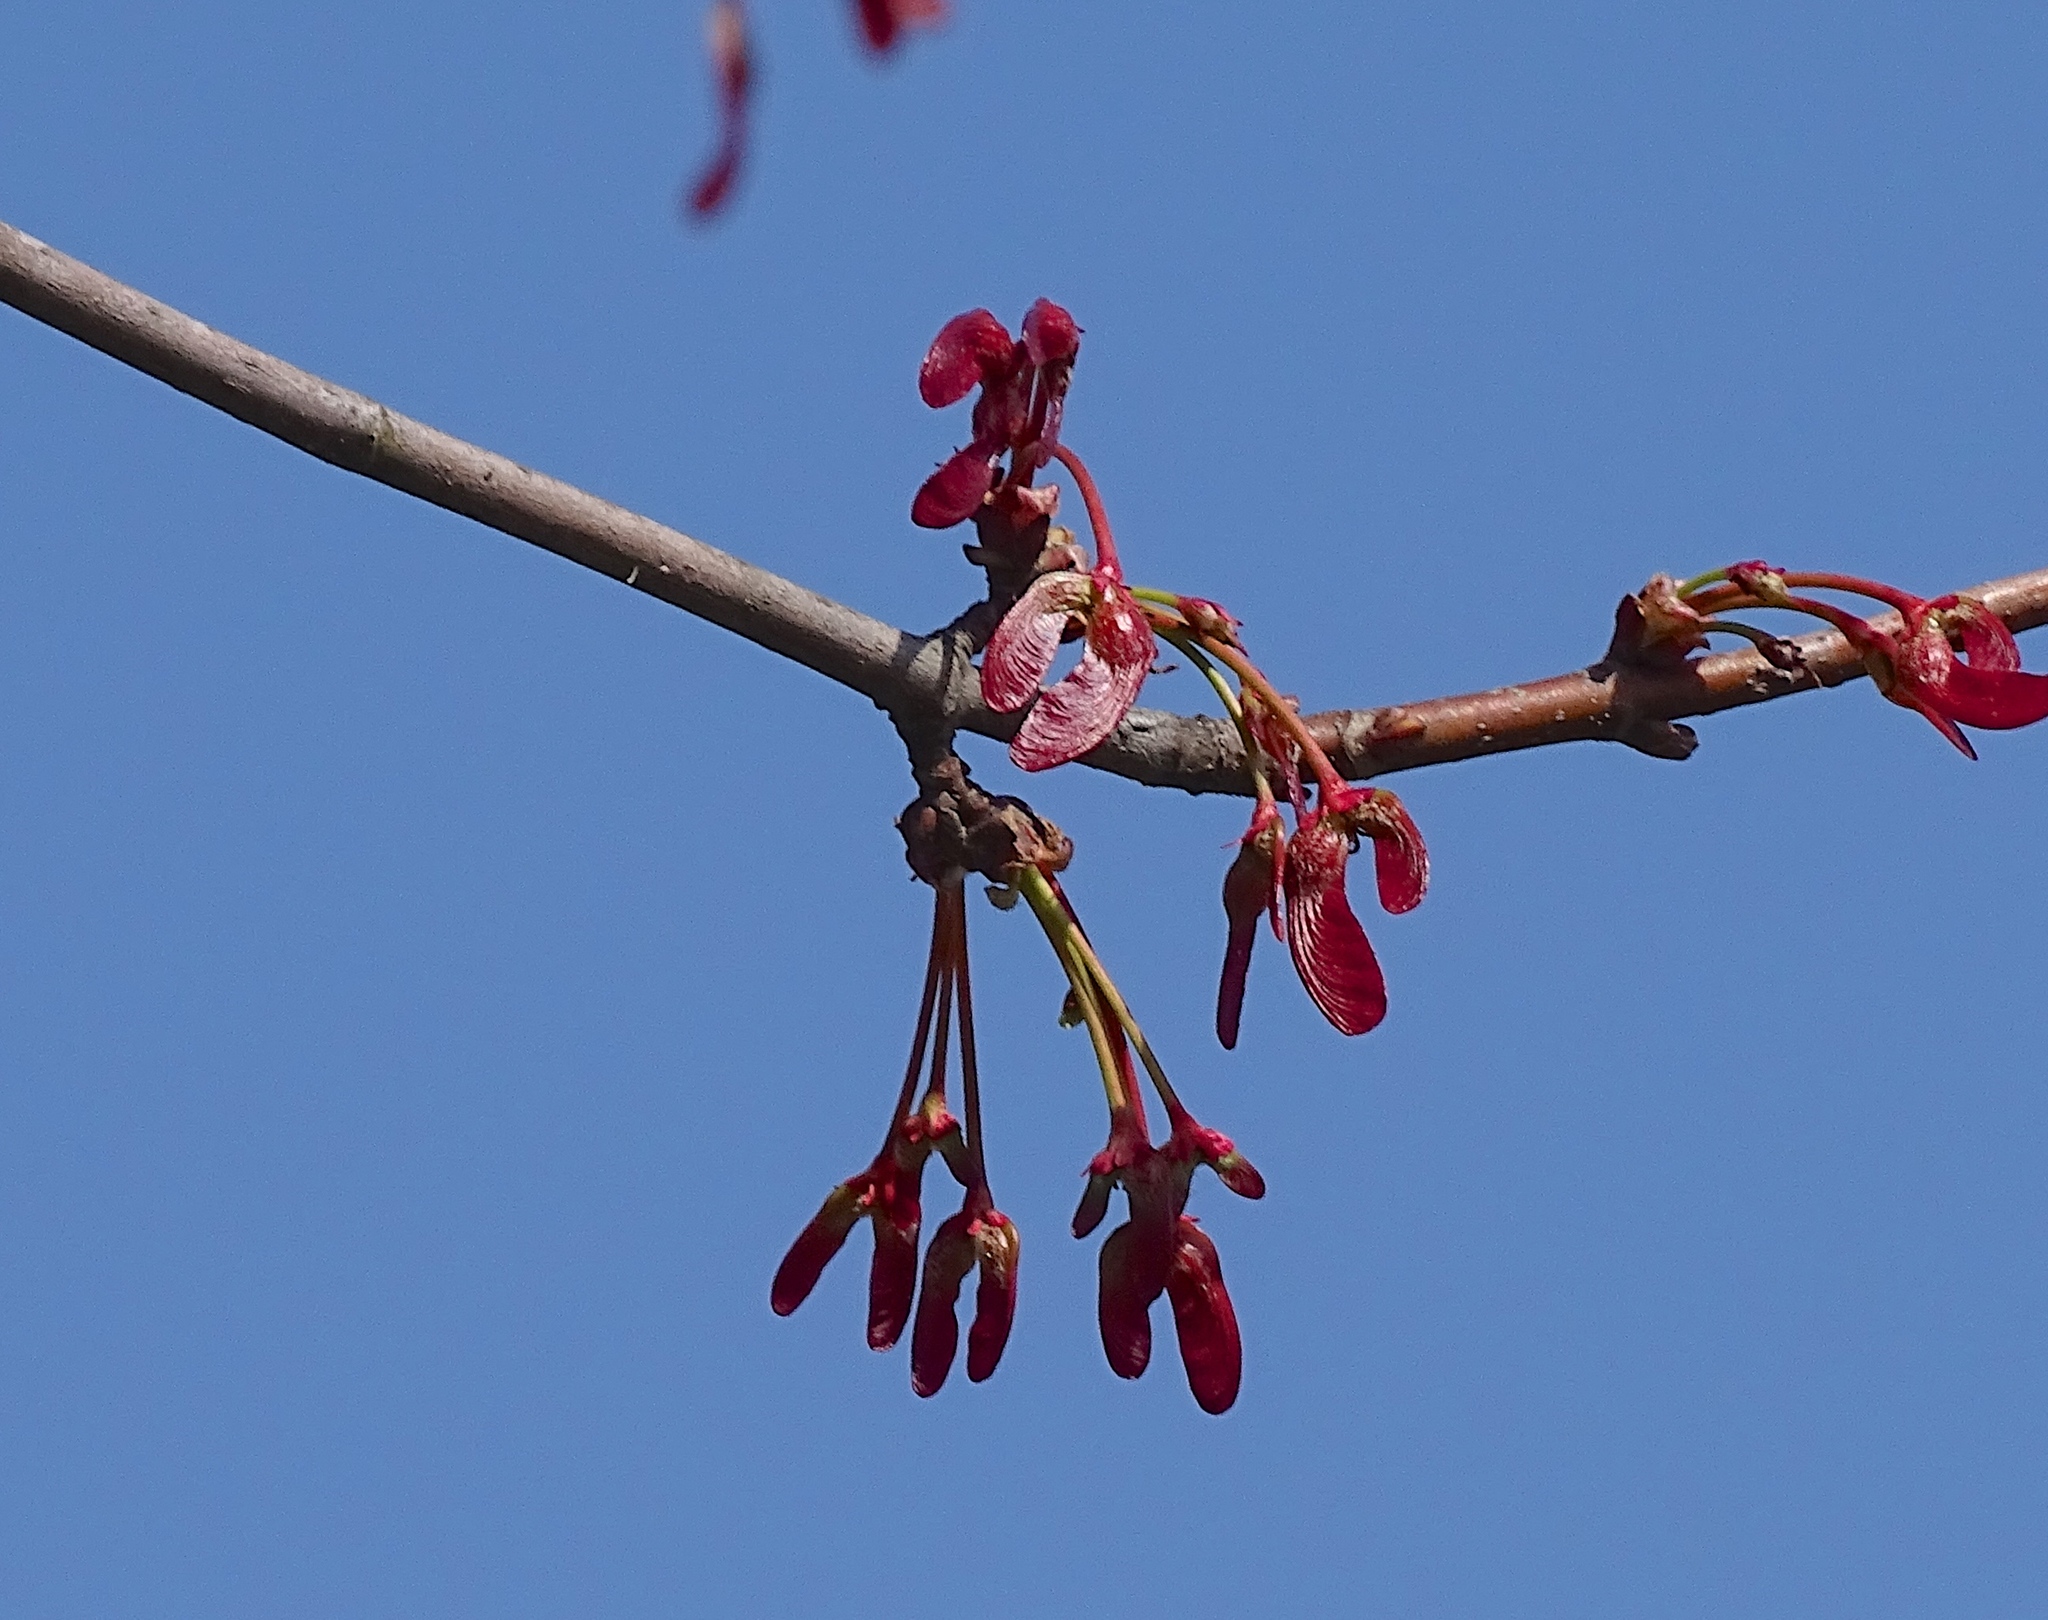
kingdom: Plantae
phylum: Tracheophyta
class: Magnoliopsida
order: Sapindales
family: Sapindaceae
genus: Acer
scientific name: Acer rubrum
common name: Red maple
